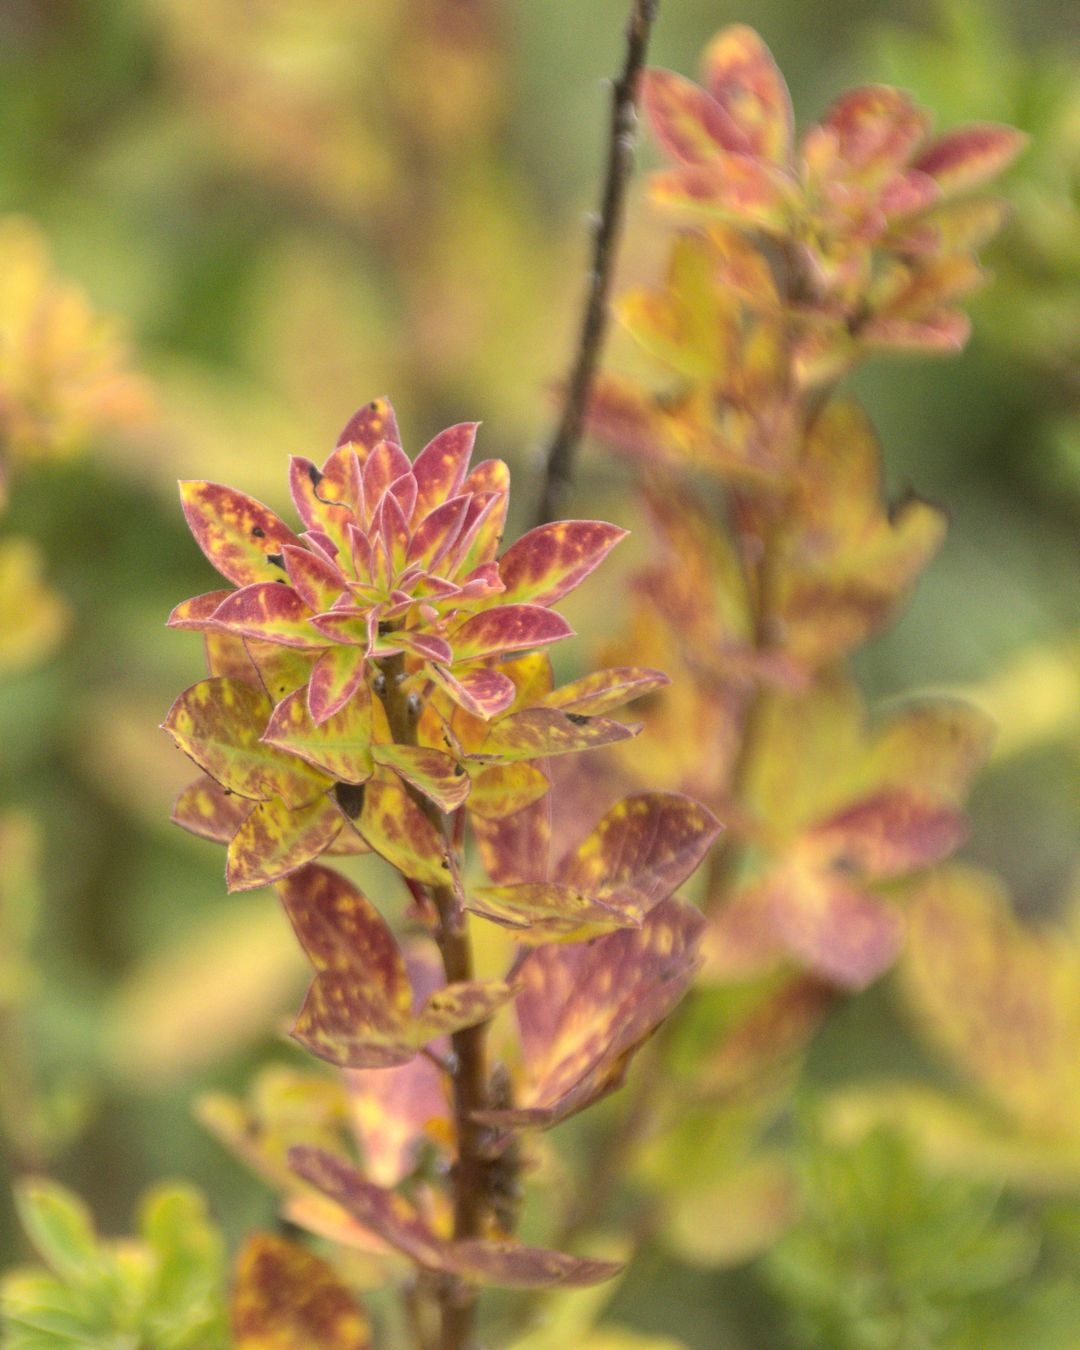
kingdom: Plantae
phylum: Tracheophyta
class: Magnoliopsida
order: Fabales
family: Fabaceae
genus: Chamaecytisus
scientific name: Chamaecytisus ruthenicus
